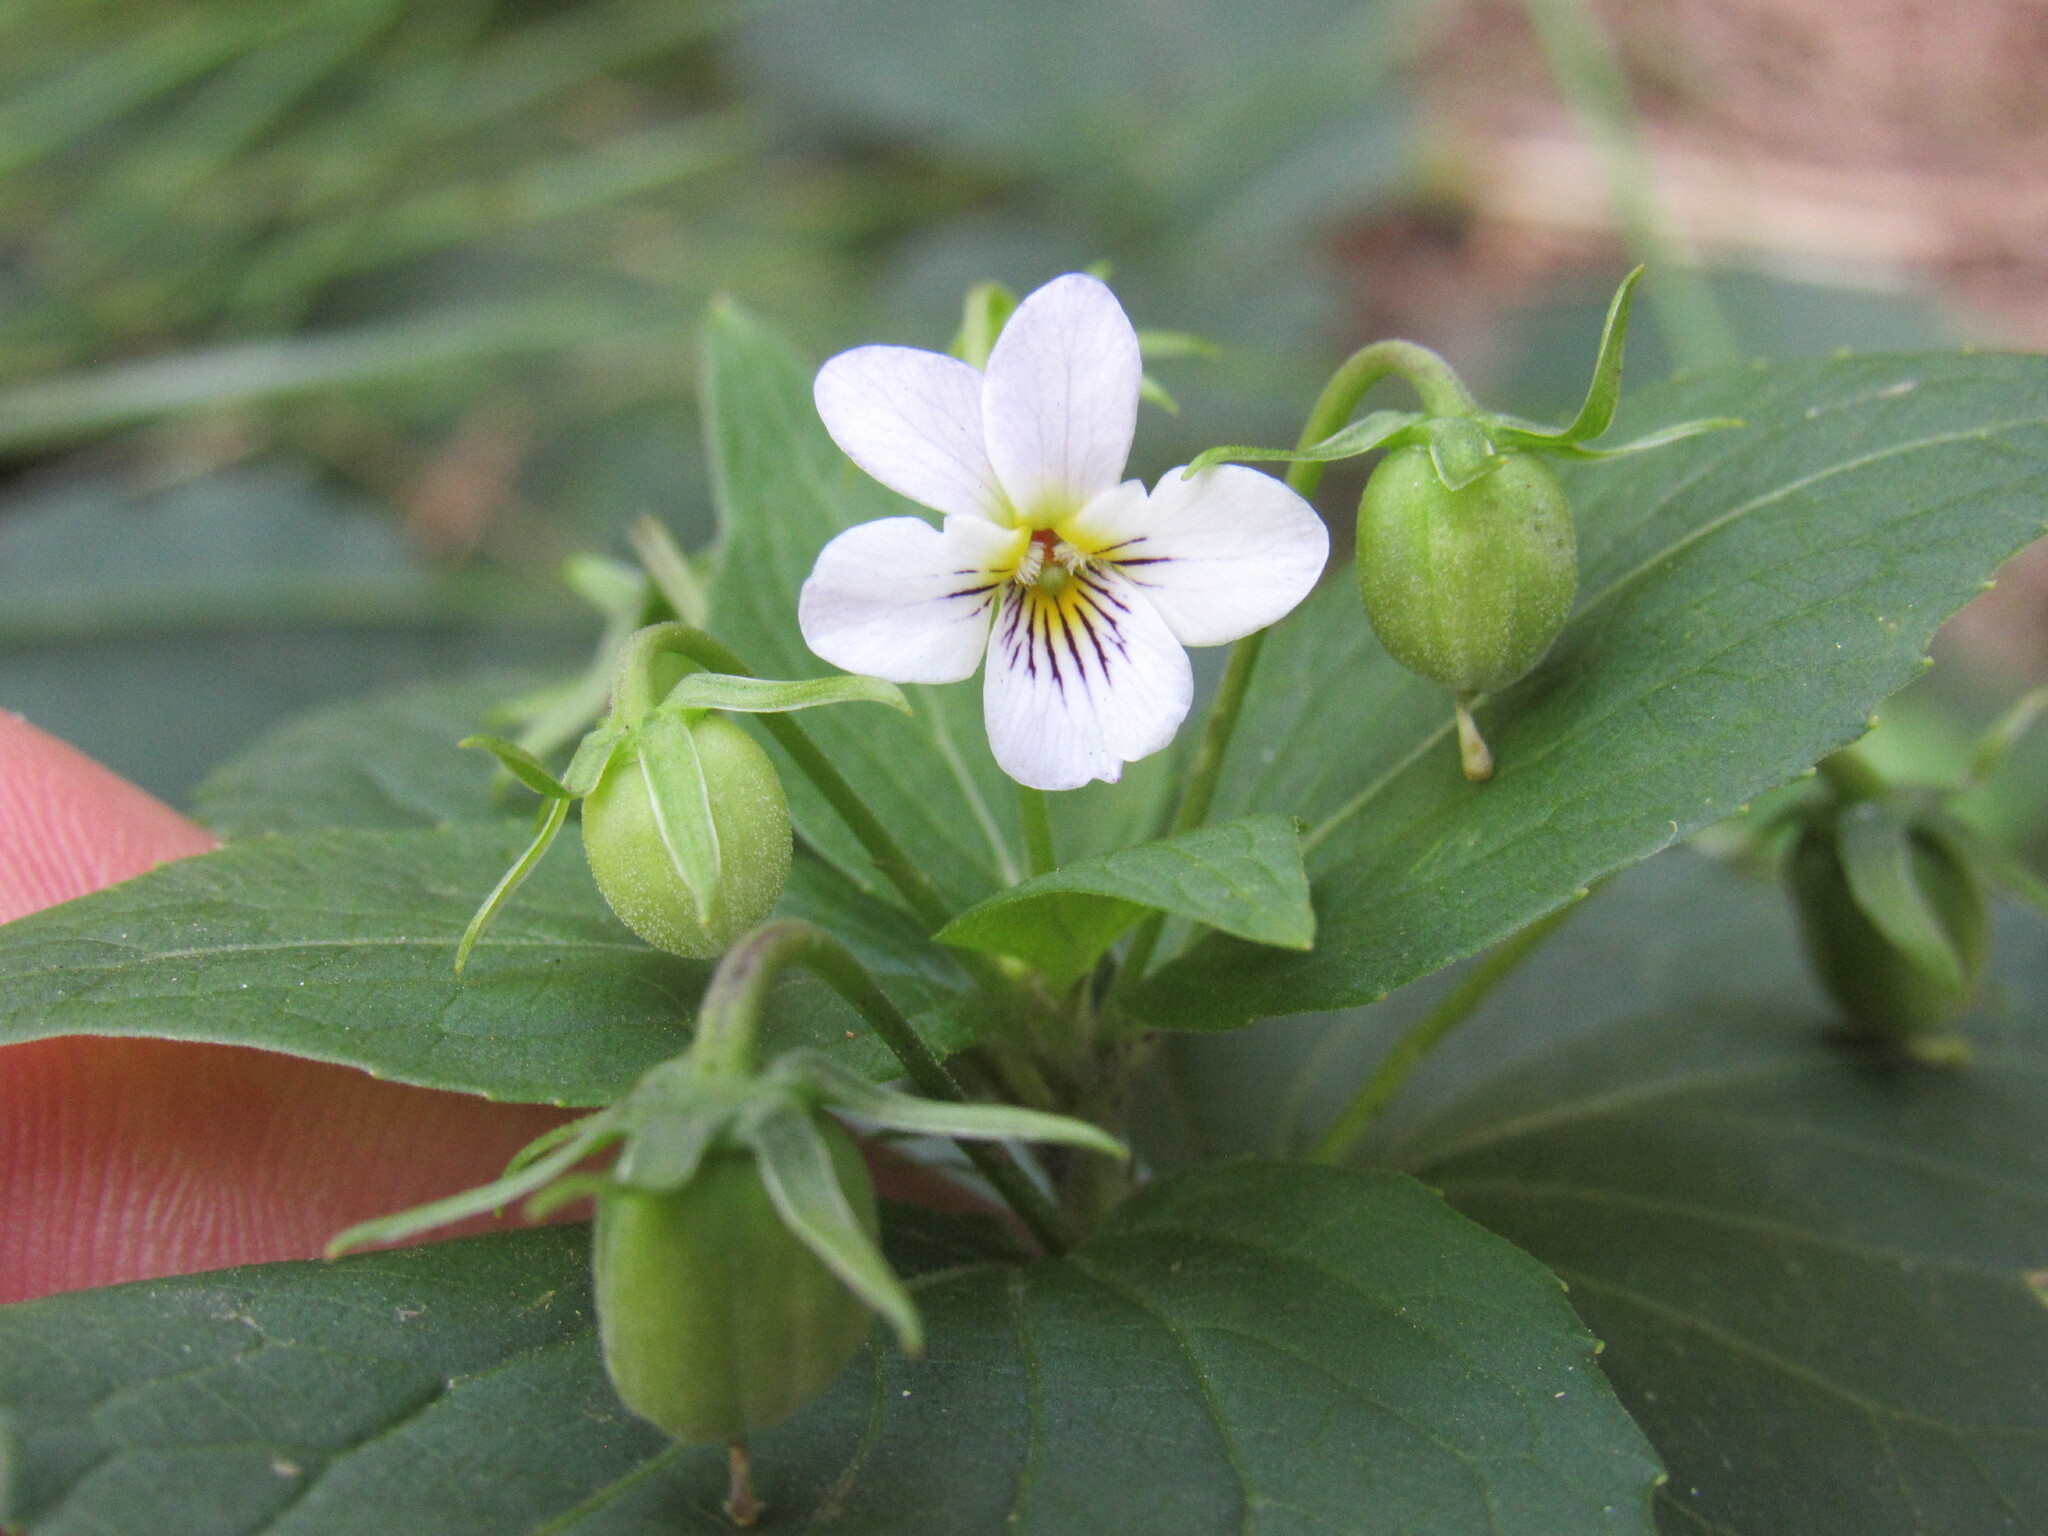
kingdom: Plantae
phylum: Tracheophyta
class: Magnoliopsida
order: Malpighiales
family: Violaceae
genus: Viola
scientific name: Viola canadensis
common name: Canada violet
